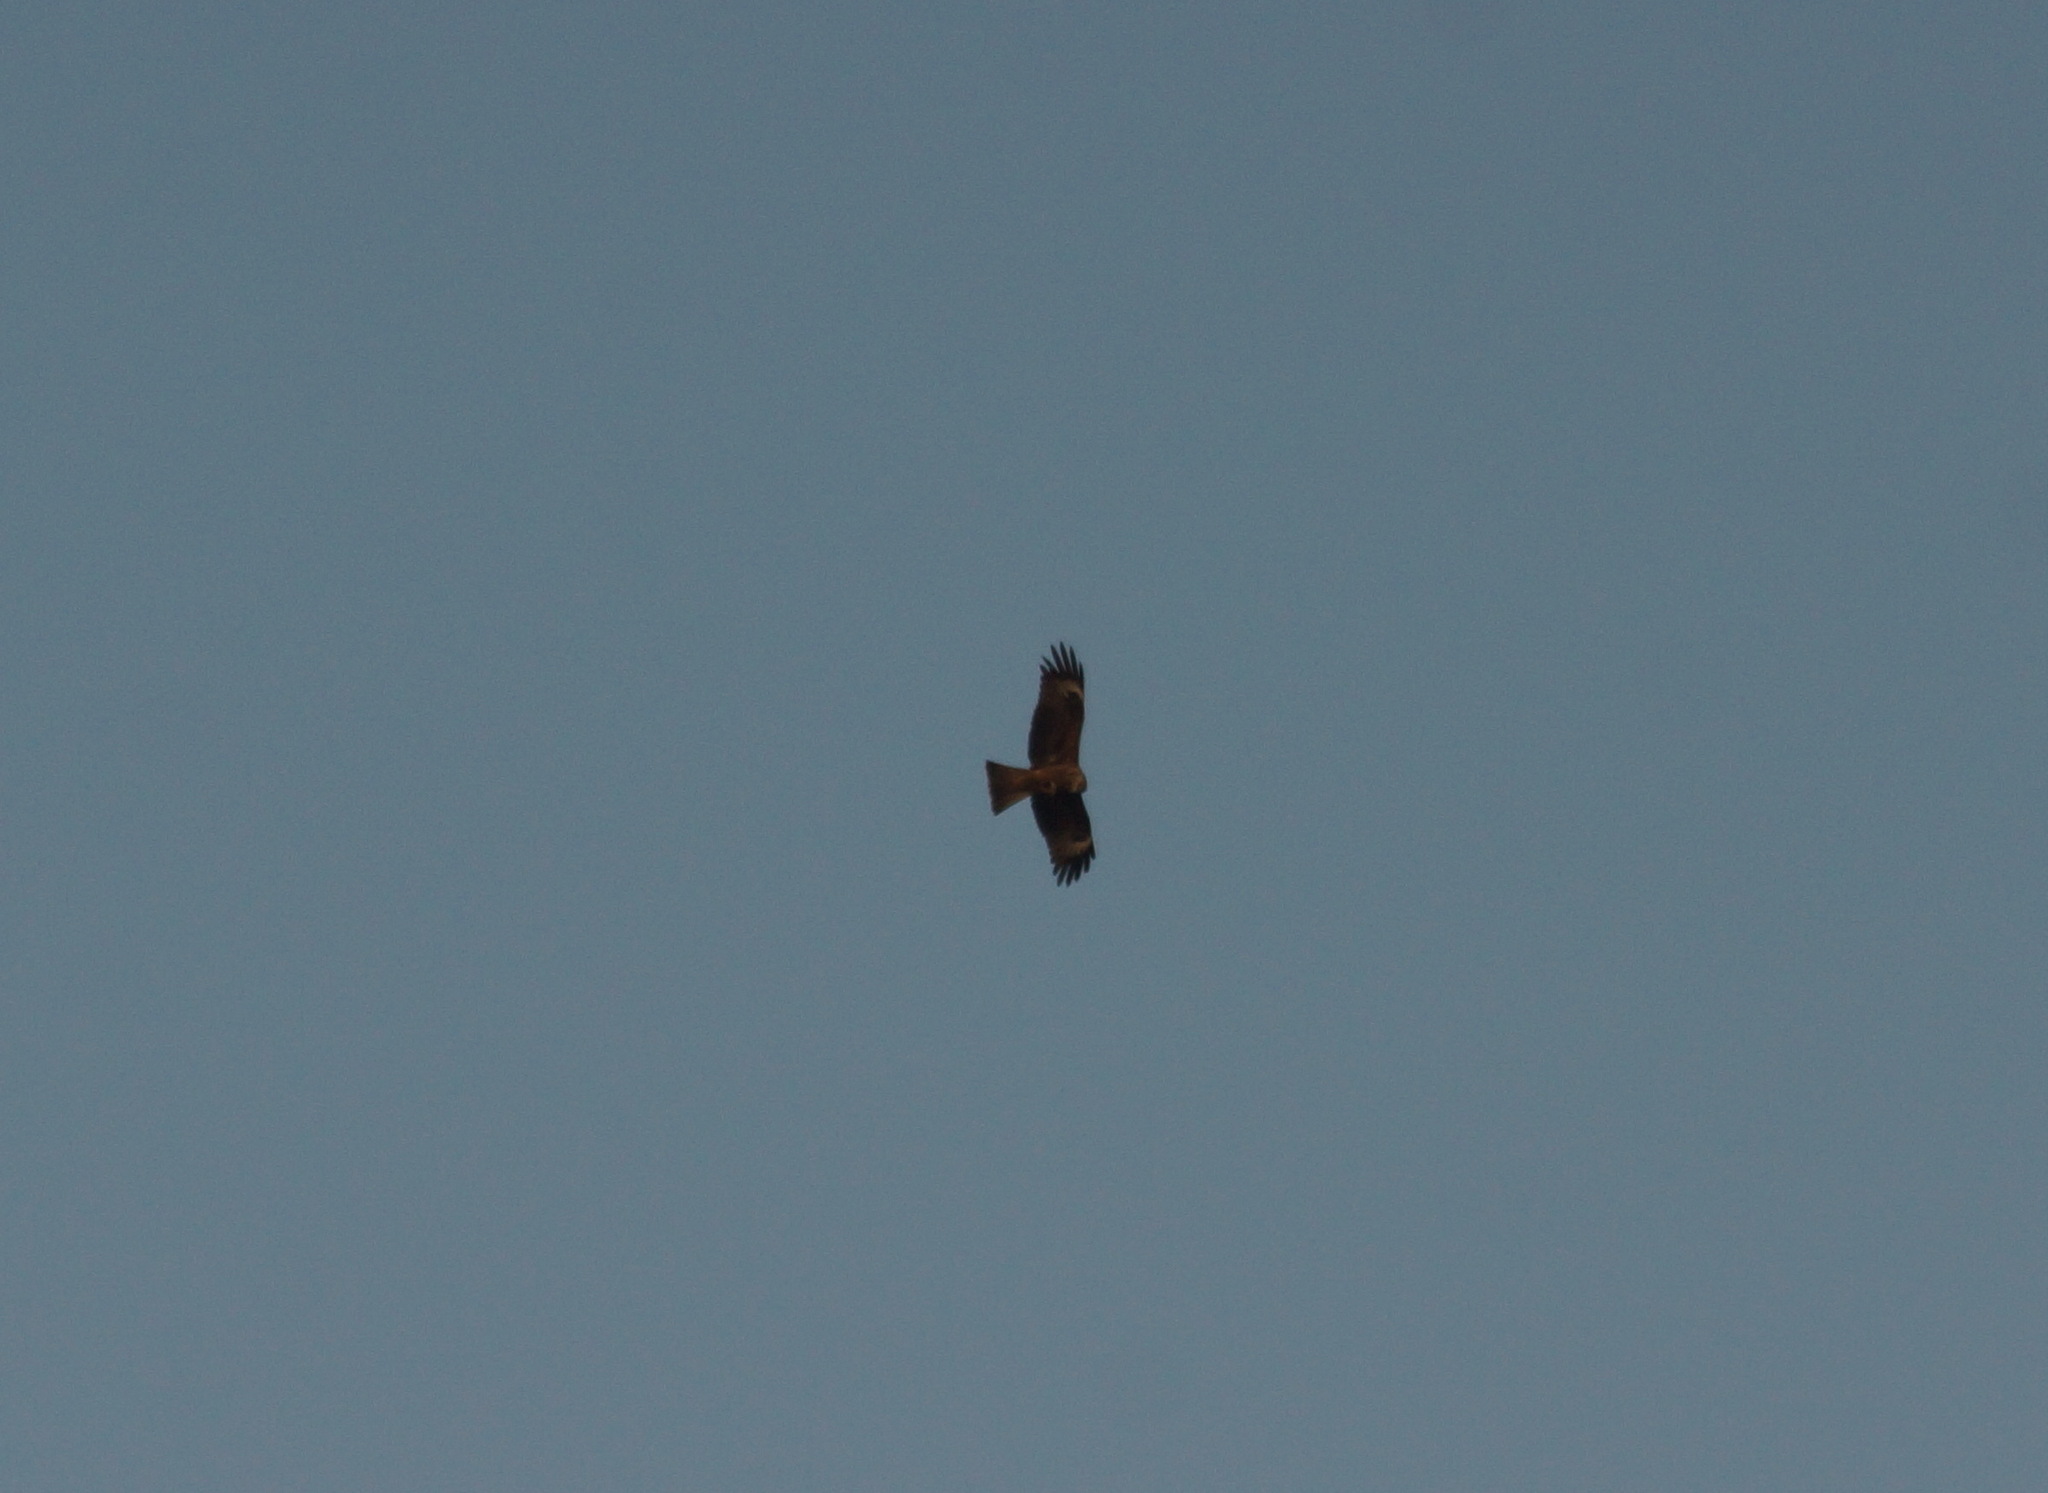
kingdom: Animalia
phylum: Chordata
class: Aves
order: Accipitriformes
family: Accipitridae
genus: Milvus
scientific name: Milvus migrans
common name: Black kite
